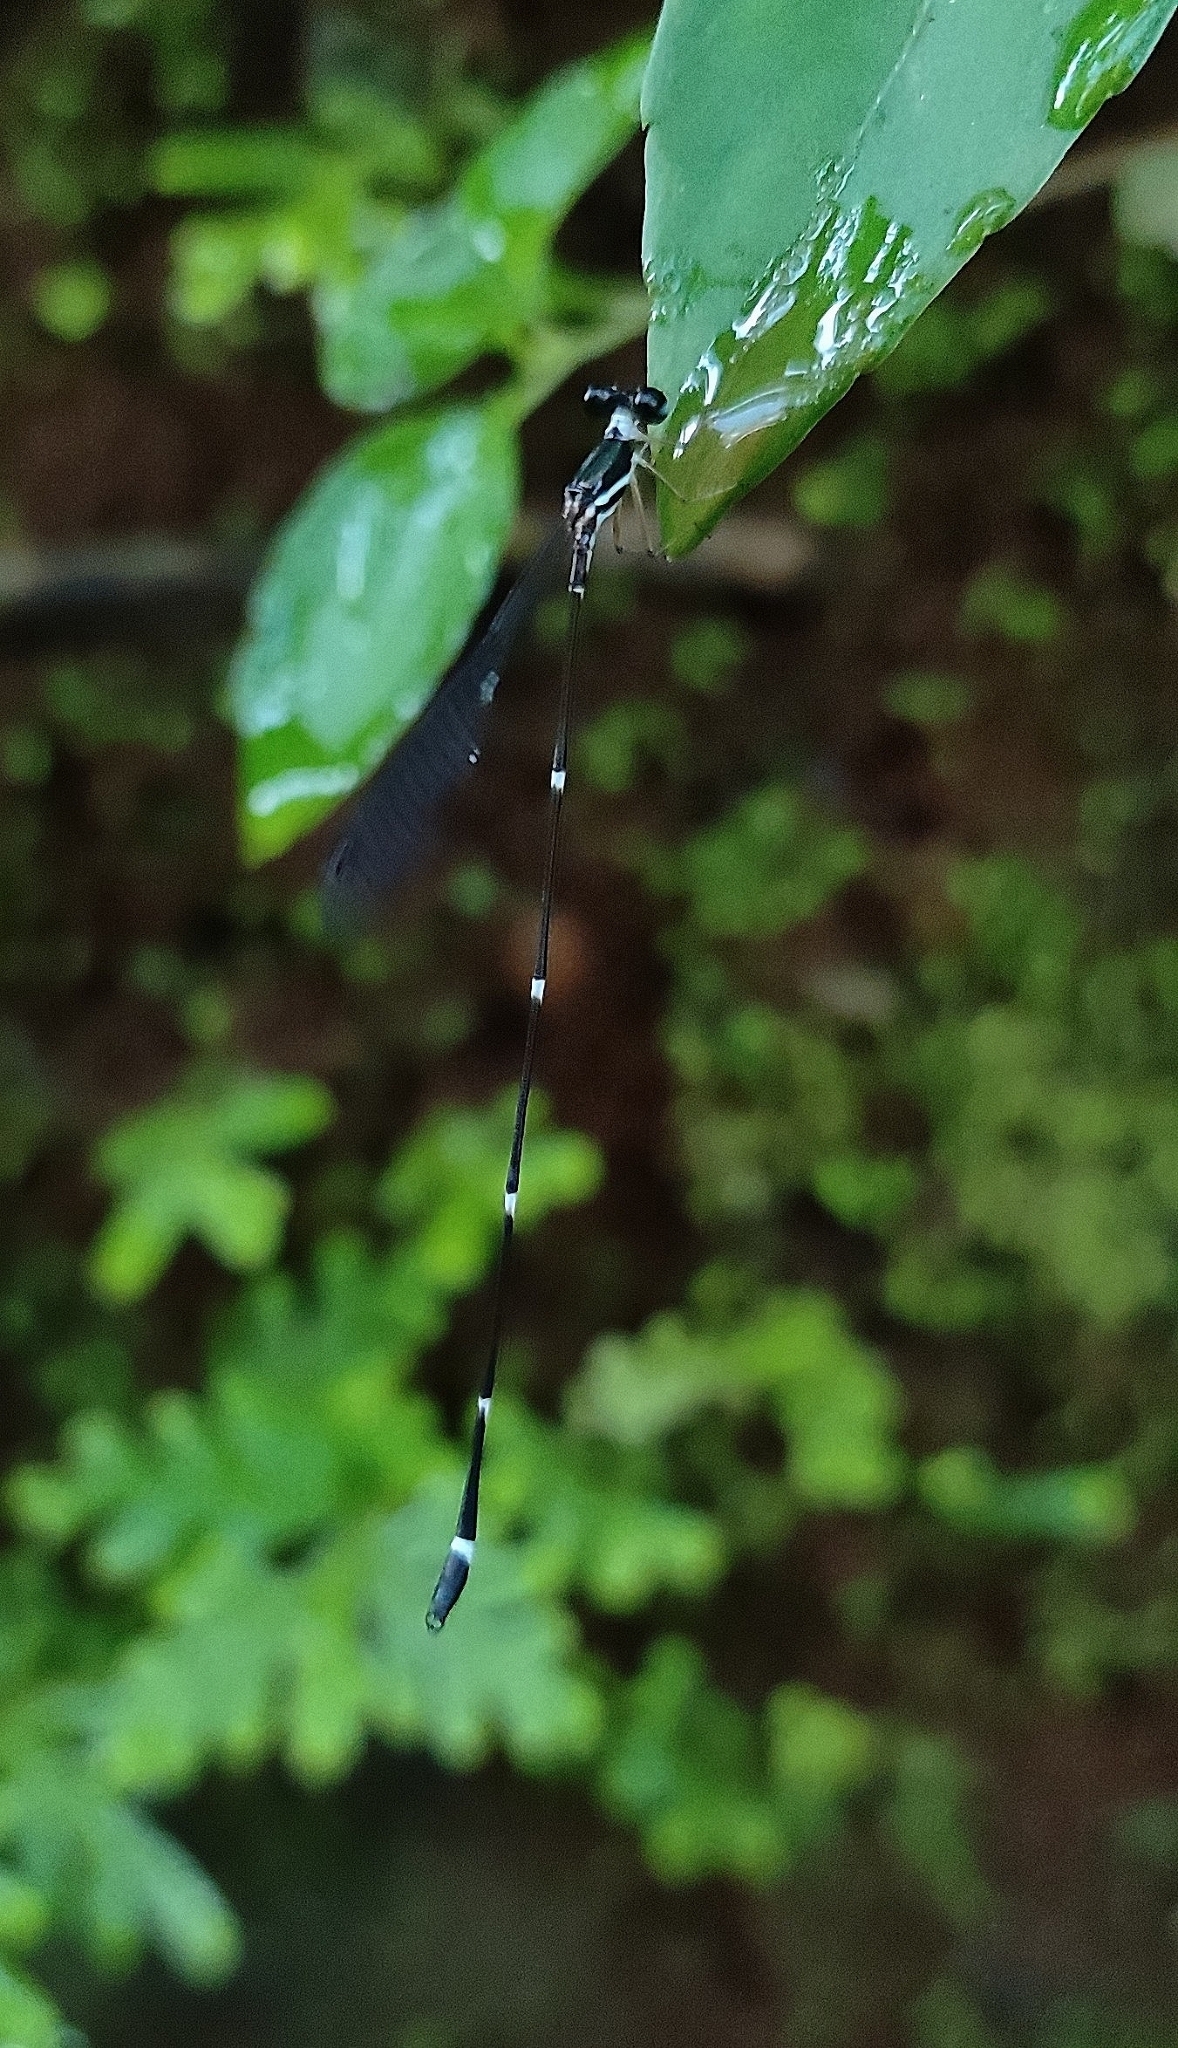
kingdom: Animalia
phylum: Arthropoda
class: Insecta
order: Odonata
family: Platystictidae
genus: Protosticta
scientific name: Protosticta gravelyi
